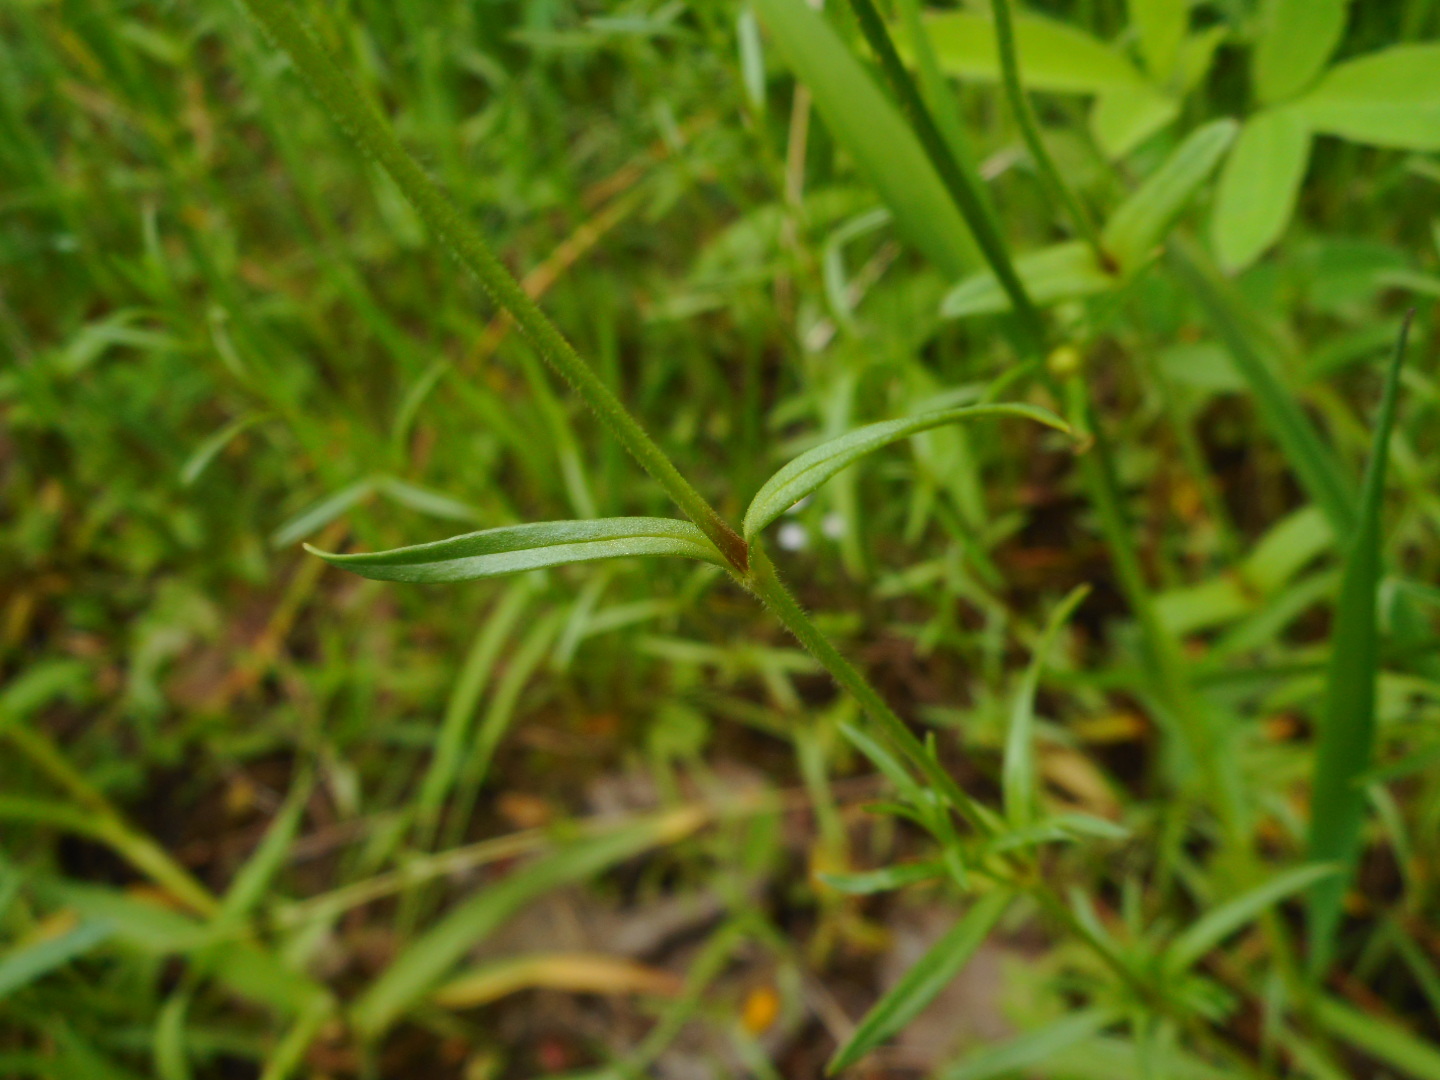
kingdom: Plantae
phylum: Tracheophyta
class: Magnoliopsida
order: Caryophyllales
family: Caryophyllaceae
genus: Cerastium
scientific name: Cerastium arvense
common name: Field mouse-ear
